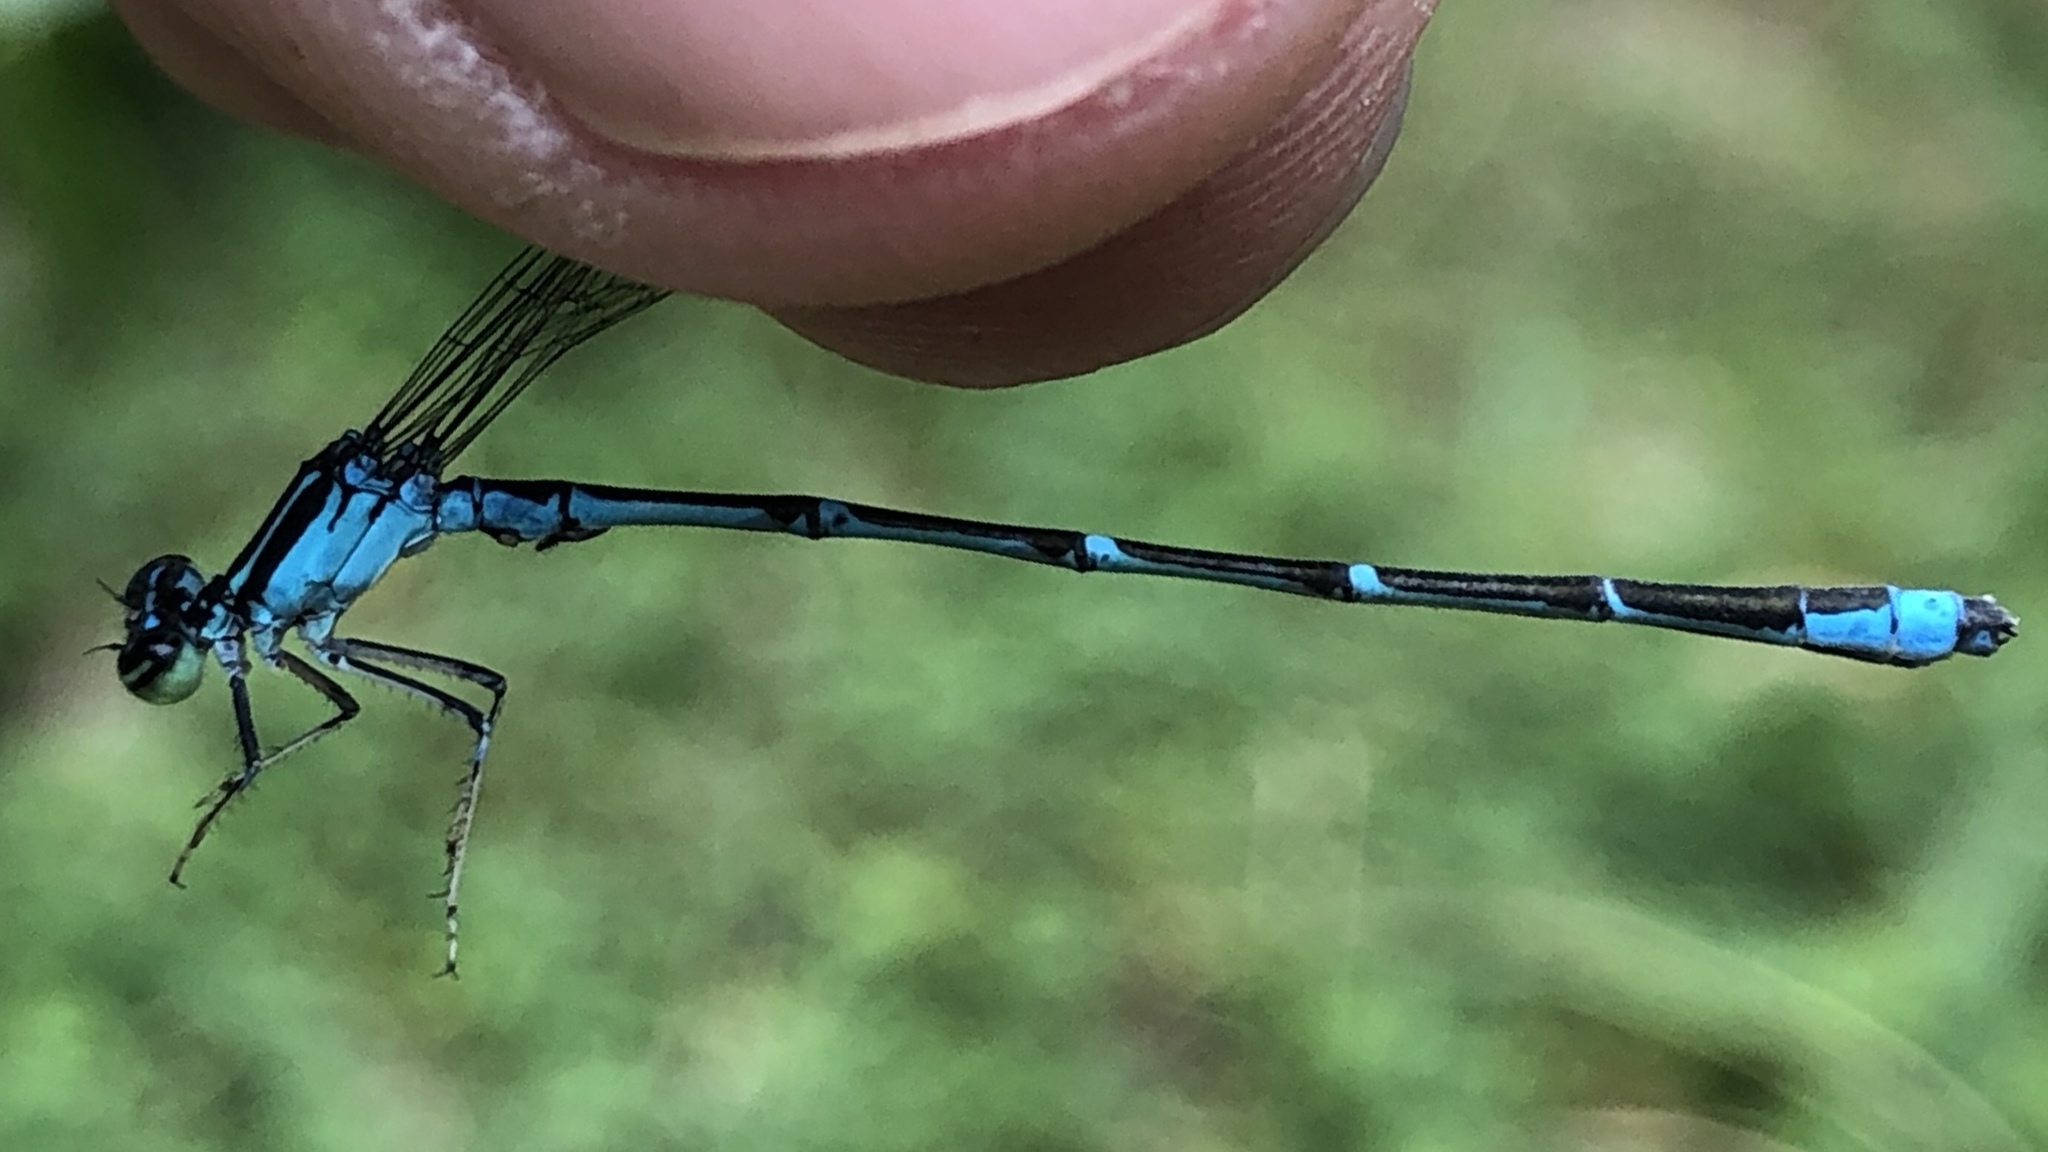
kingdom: Animalia
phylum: Arthropoda
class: Insecta
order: Odonata
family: Coenagrionidae
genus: Enallagma
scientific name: Enallagma exsulans
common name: Stream bluet
